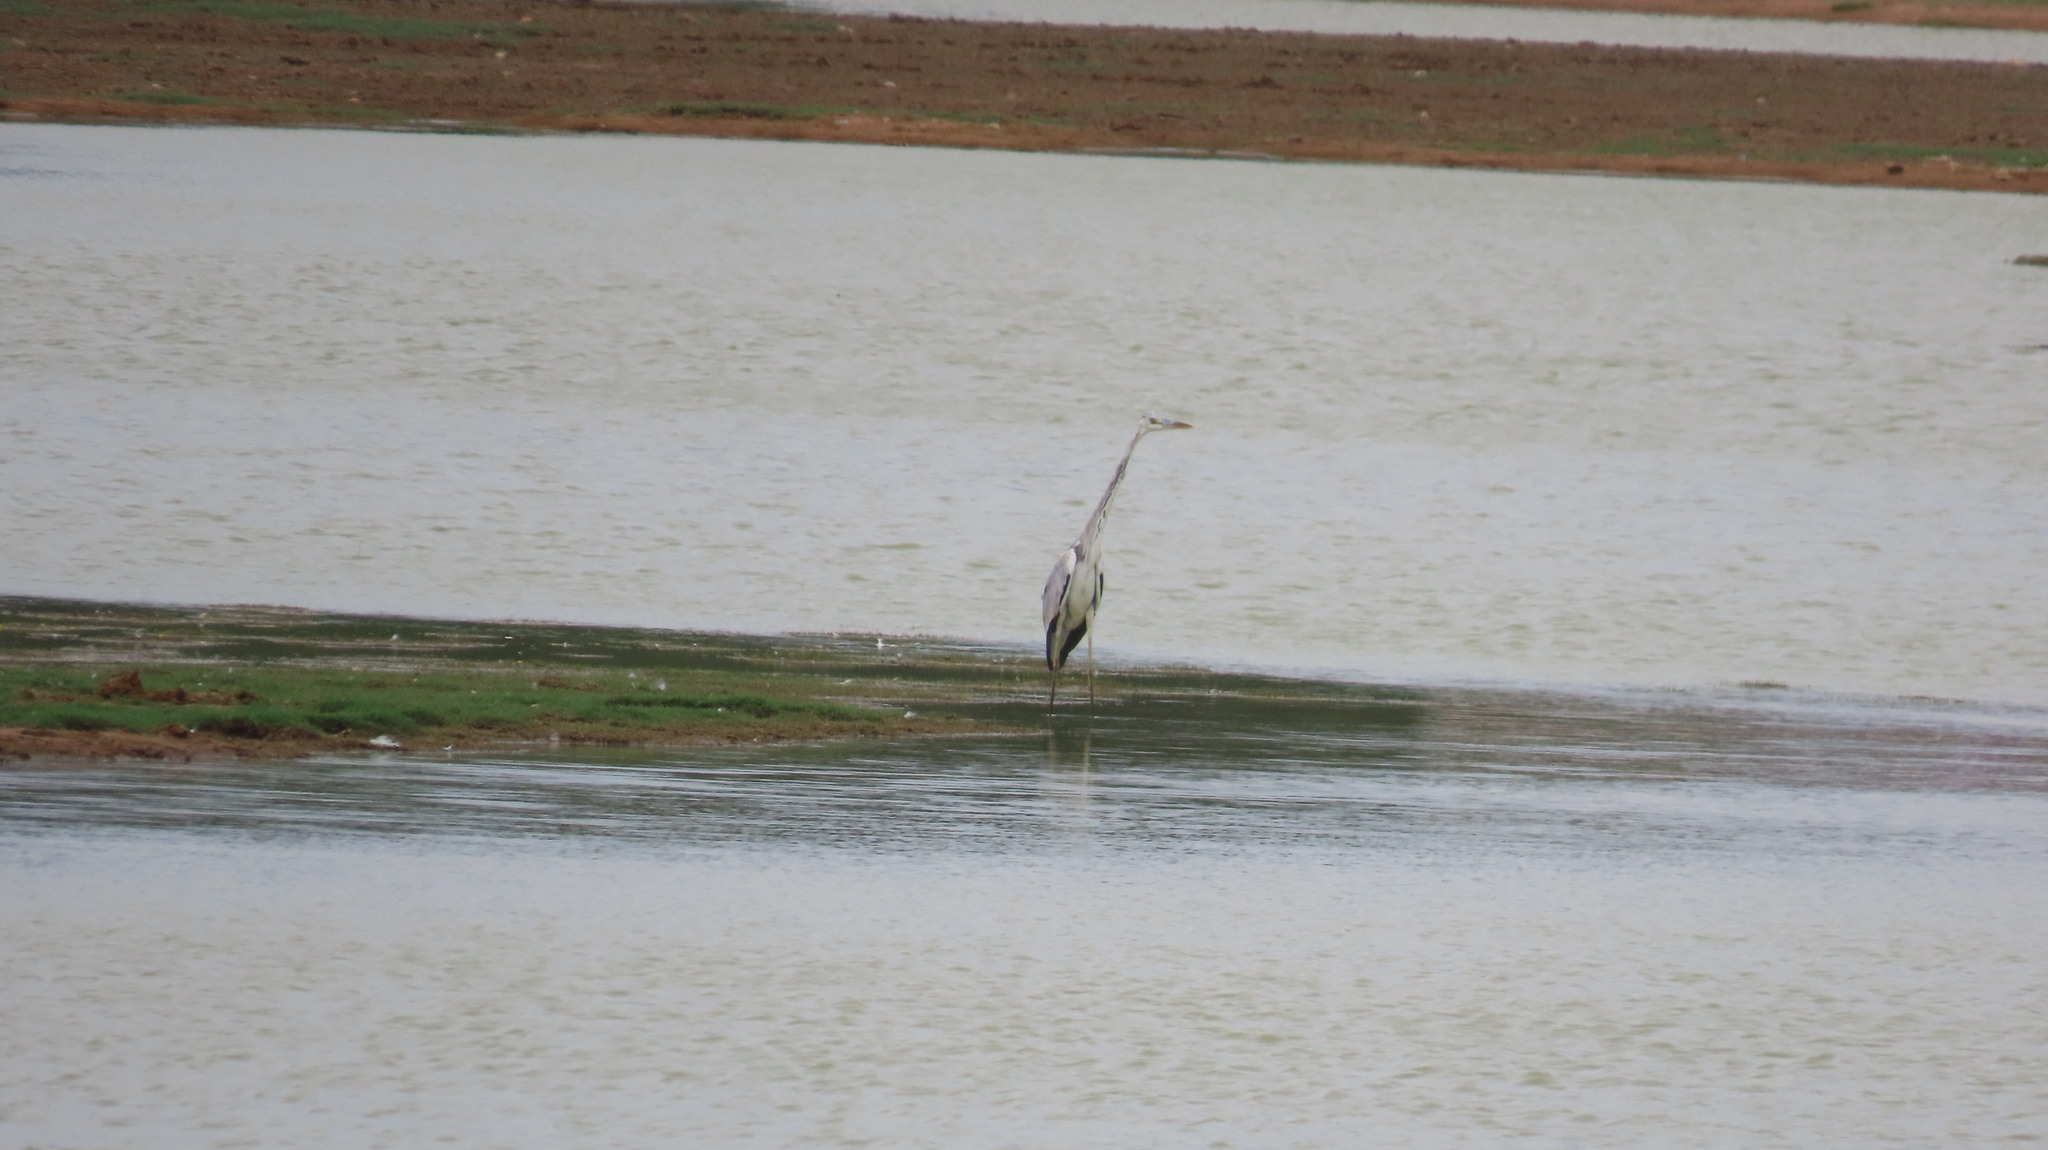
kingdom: Animalia
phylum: Chordata
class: Aves
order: Pelecaniformes
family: Ardeidae
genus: Ardea
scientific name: Ardea cinerea
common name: Grey heron
